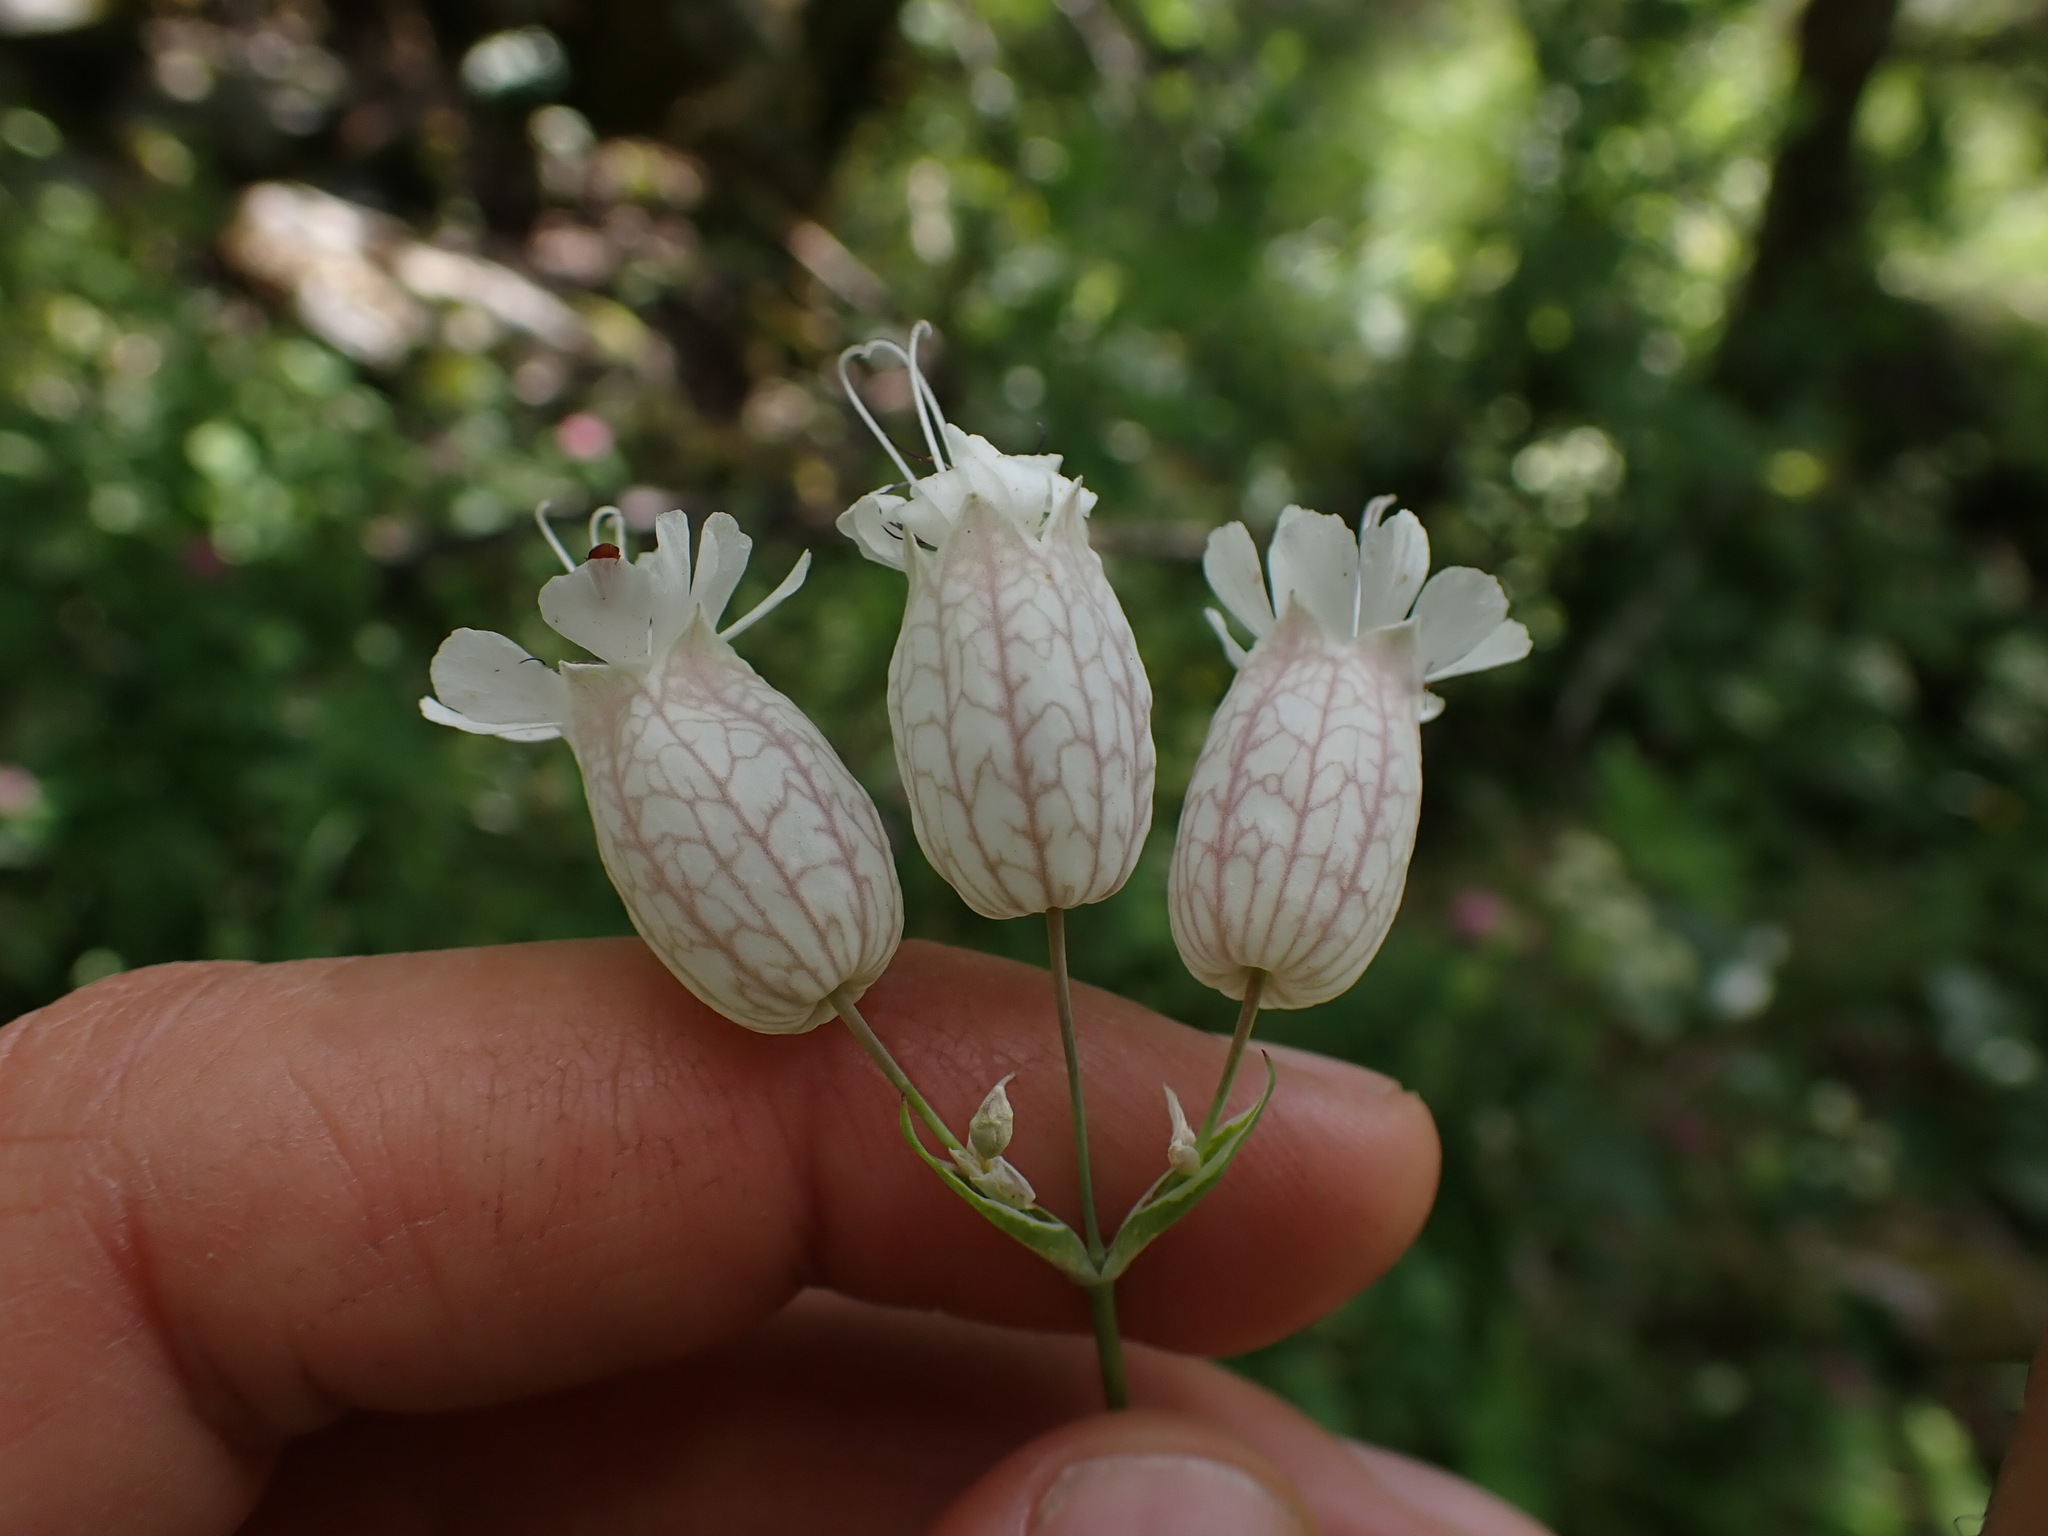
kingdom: Plantae
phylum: Tracheophyta
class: Magnoliopsida
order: Caryophyllales
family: Caryophyllaceae
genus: Silene
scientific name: Silene vulgaris
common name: Bladder campion
